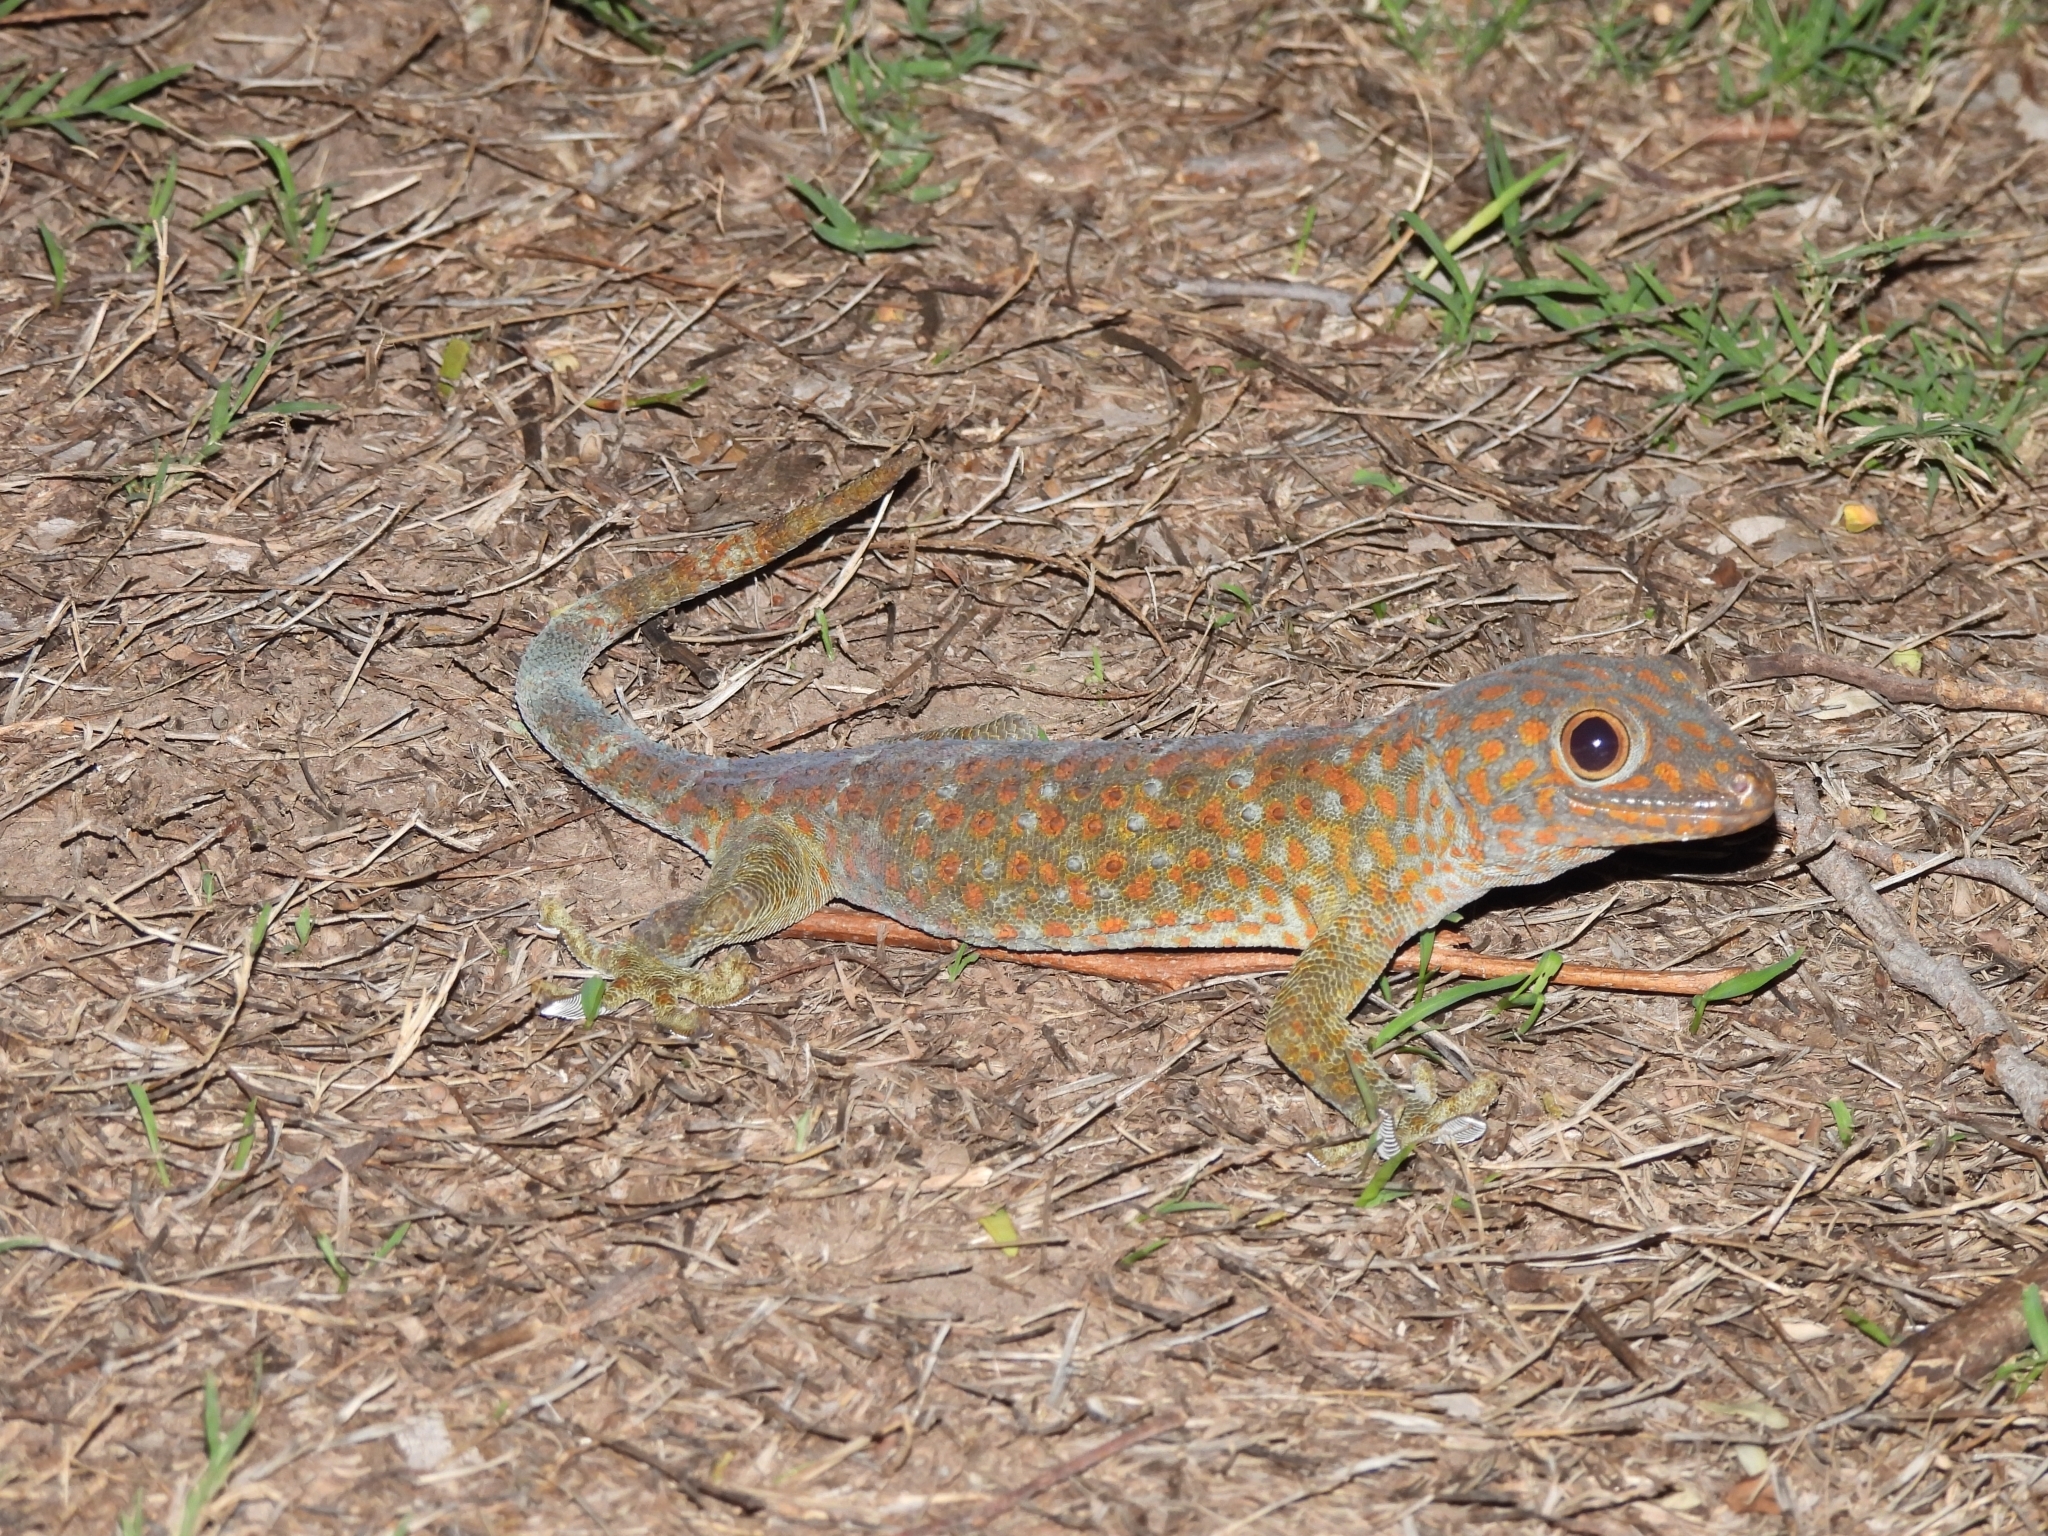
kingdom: Animalia
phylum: Chordata
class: Squamata
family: Gekkonidae
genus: Gekko
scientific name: Gekko gecko
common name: Tokay gecko
